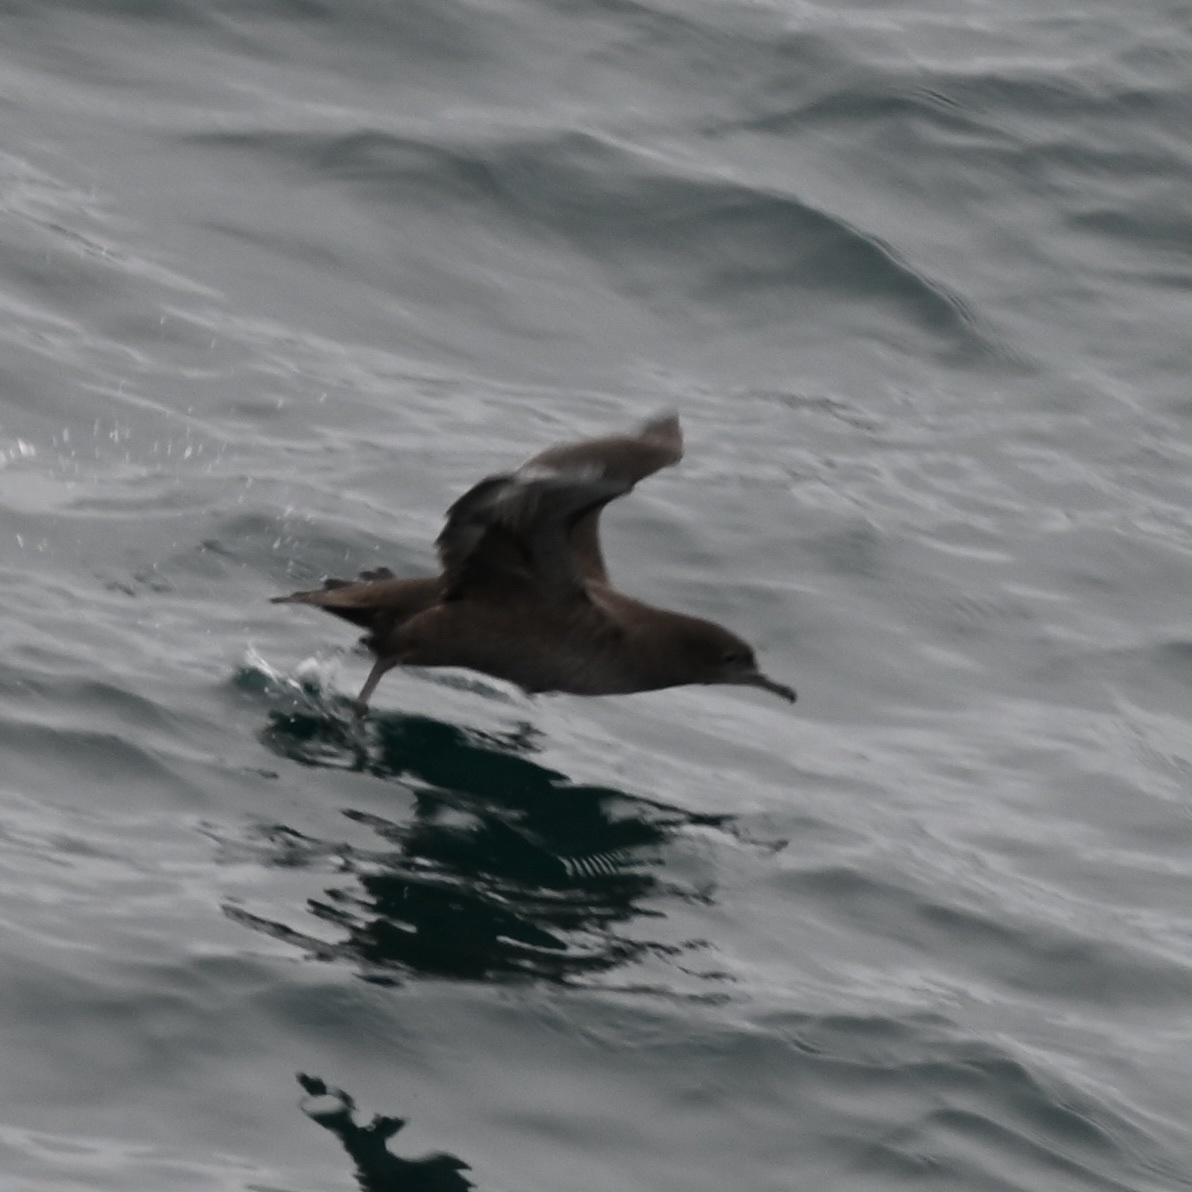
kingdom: Animalia
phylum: Chordata
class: Aves
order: Procellariiformes
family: Procellariidae
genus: Puffinus
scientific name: Puffinus griseus
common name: Sooty shearwater
